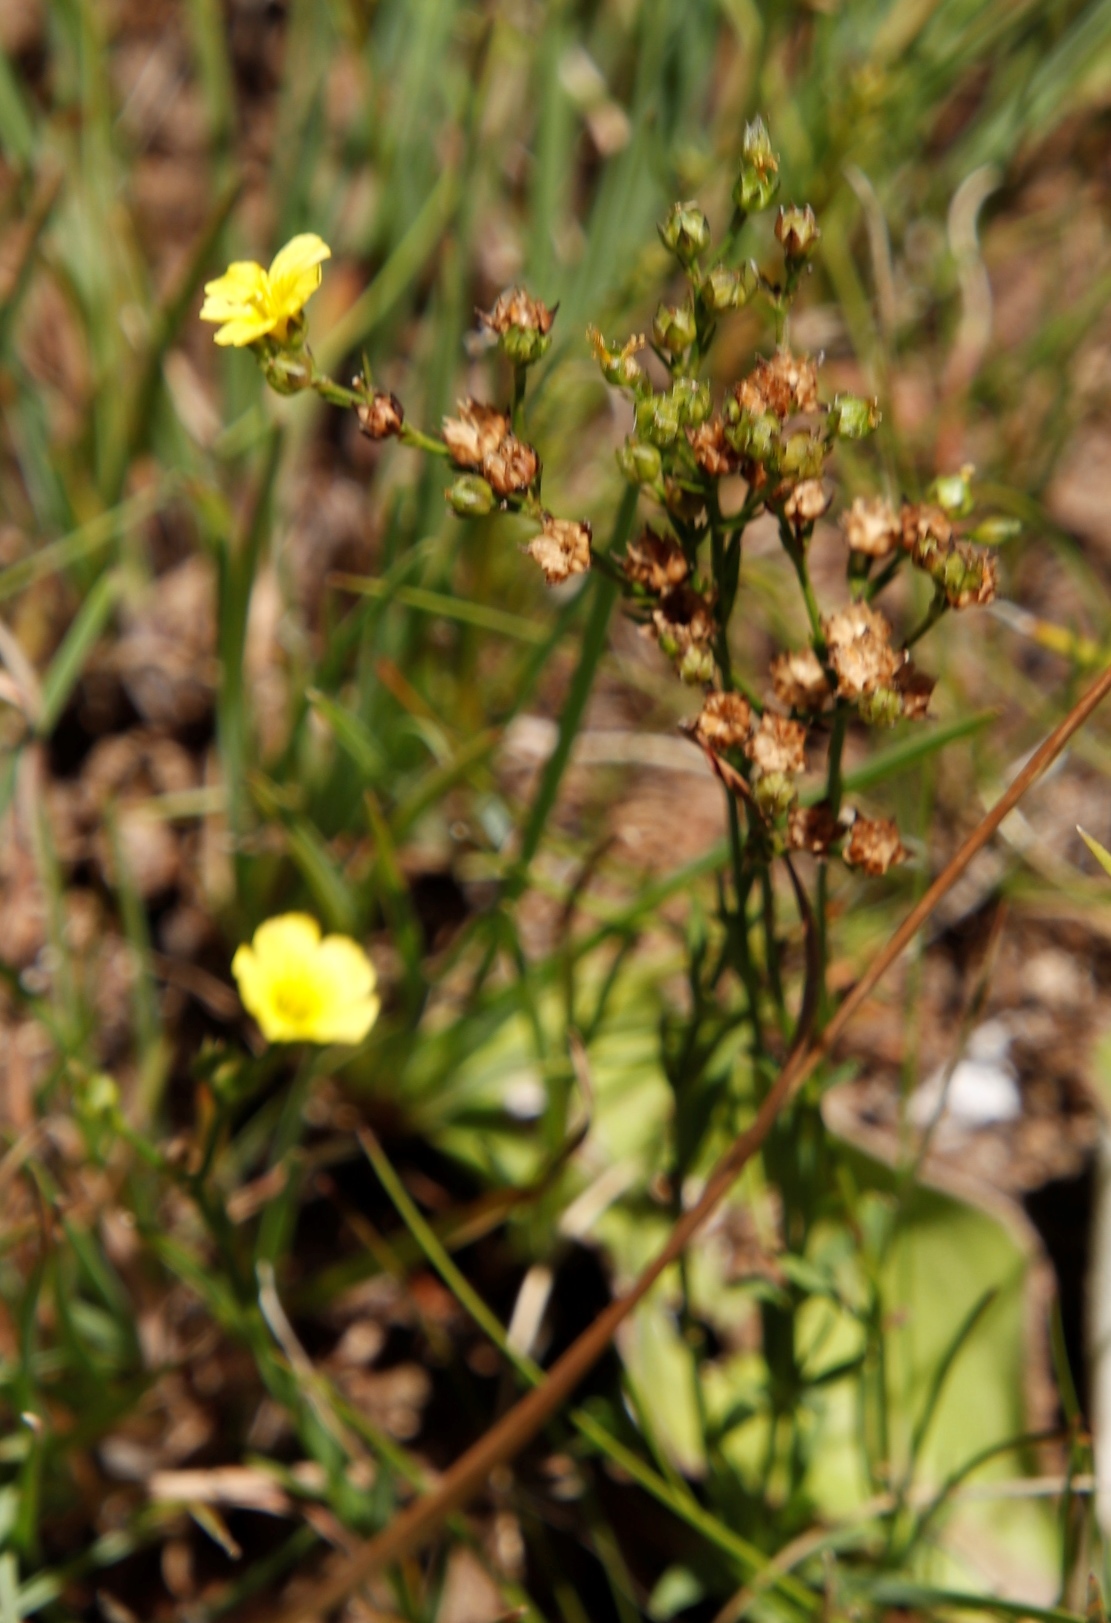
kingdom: Plantae
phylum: Tracheophyta
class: Magnoliopsida
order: Malpighiales
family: Linaceae
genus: Linum
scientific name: Linum thunbergii
